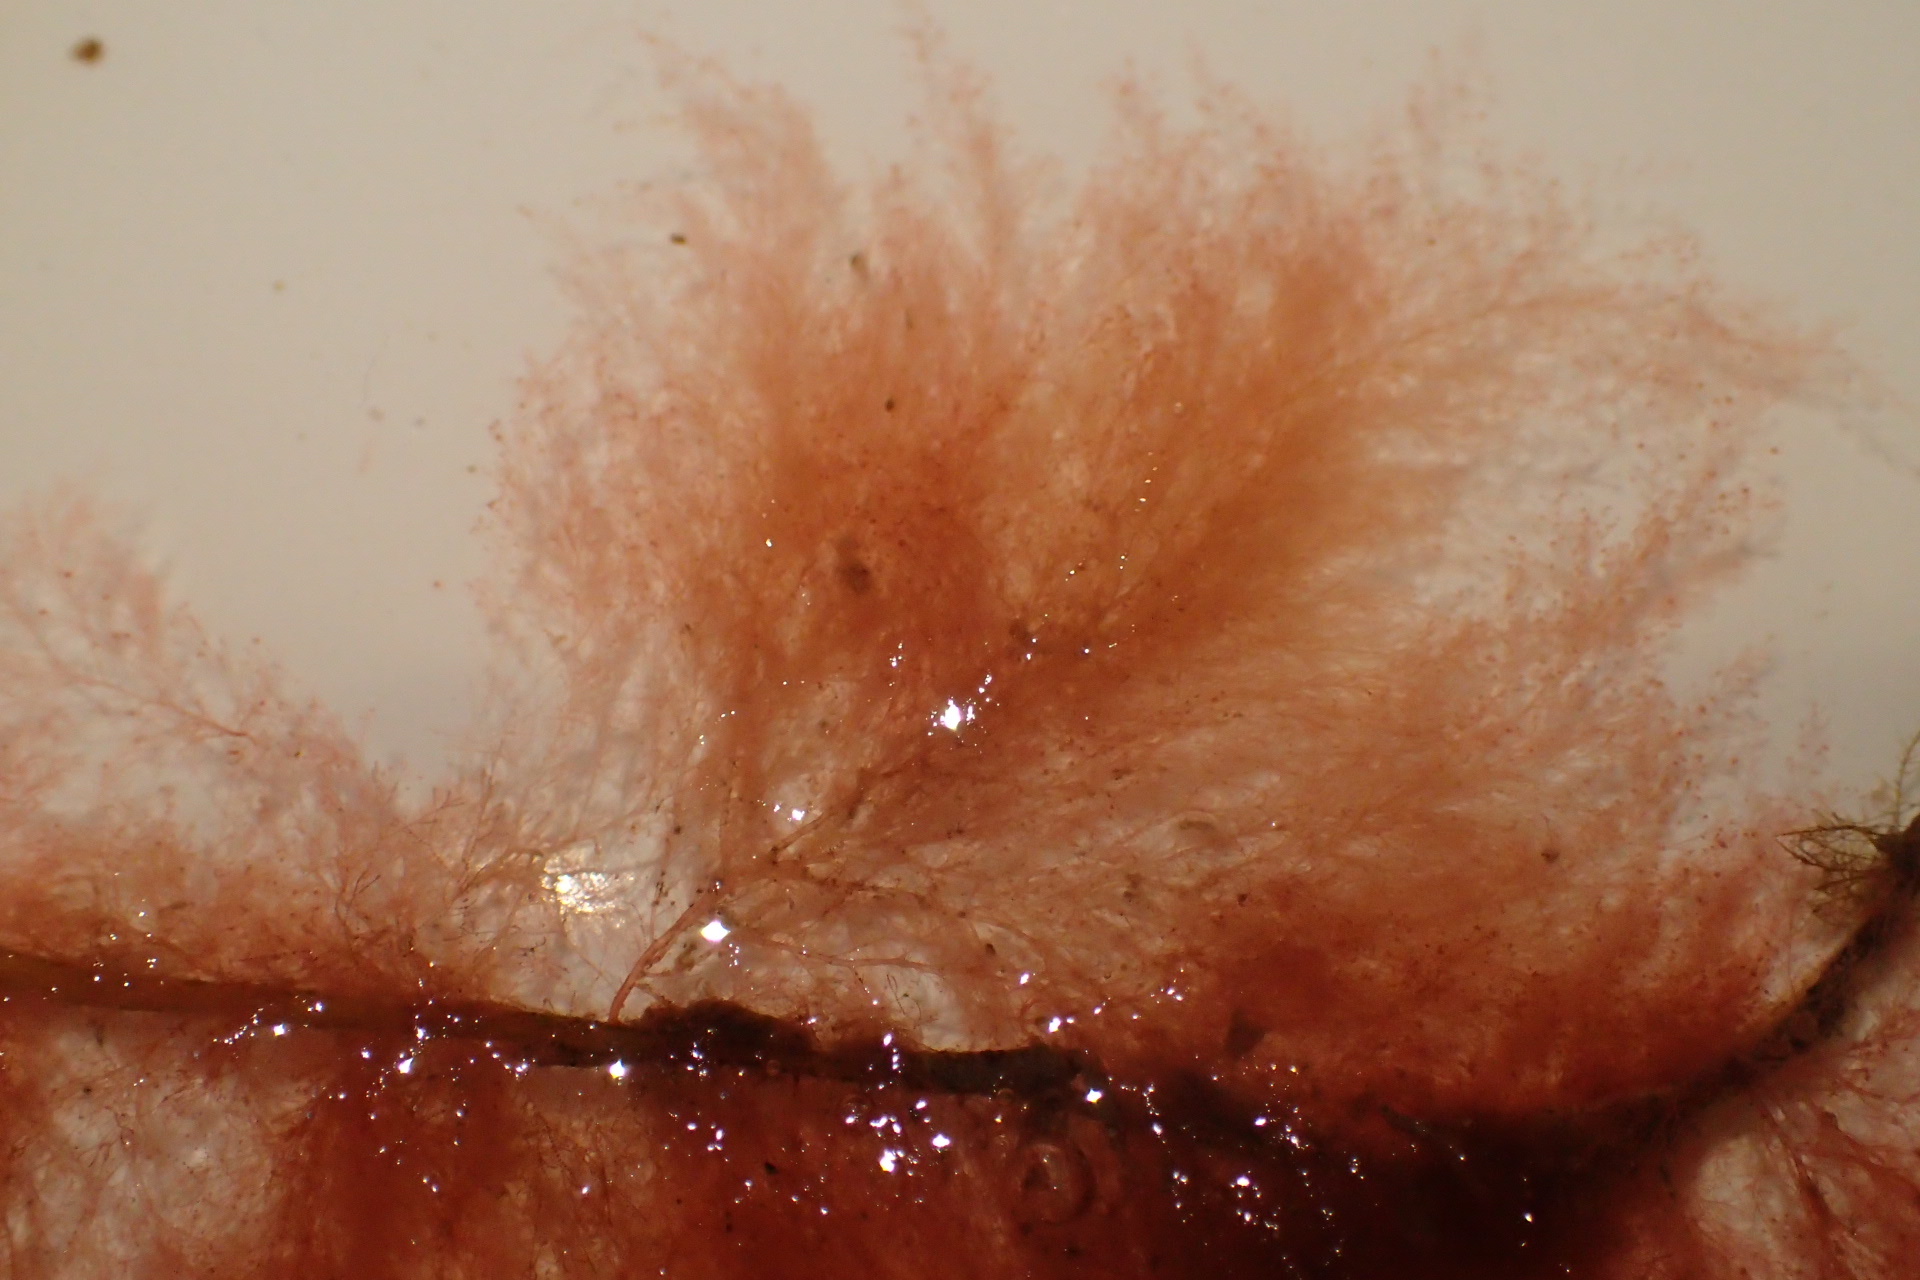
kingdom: Plantae
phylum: Rhodophyta
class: Florideophyceae
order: Ceramiales
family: Callithamniaceae
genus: Callithamnion
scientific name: Callithamnion corymbosum
